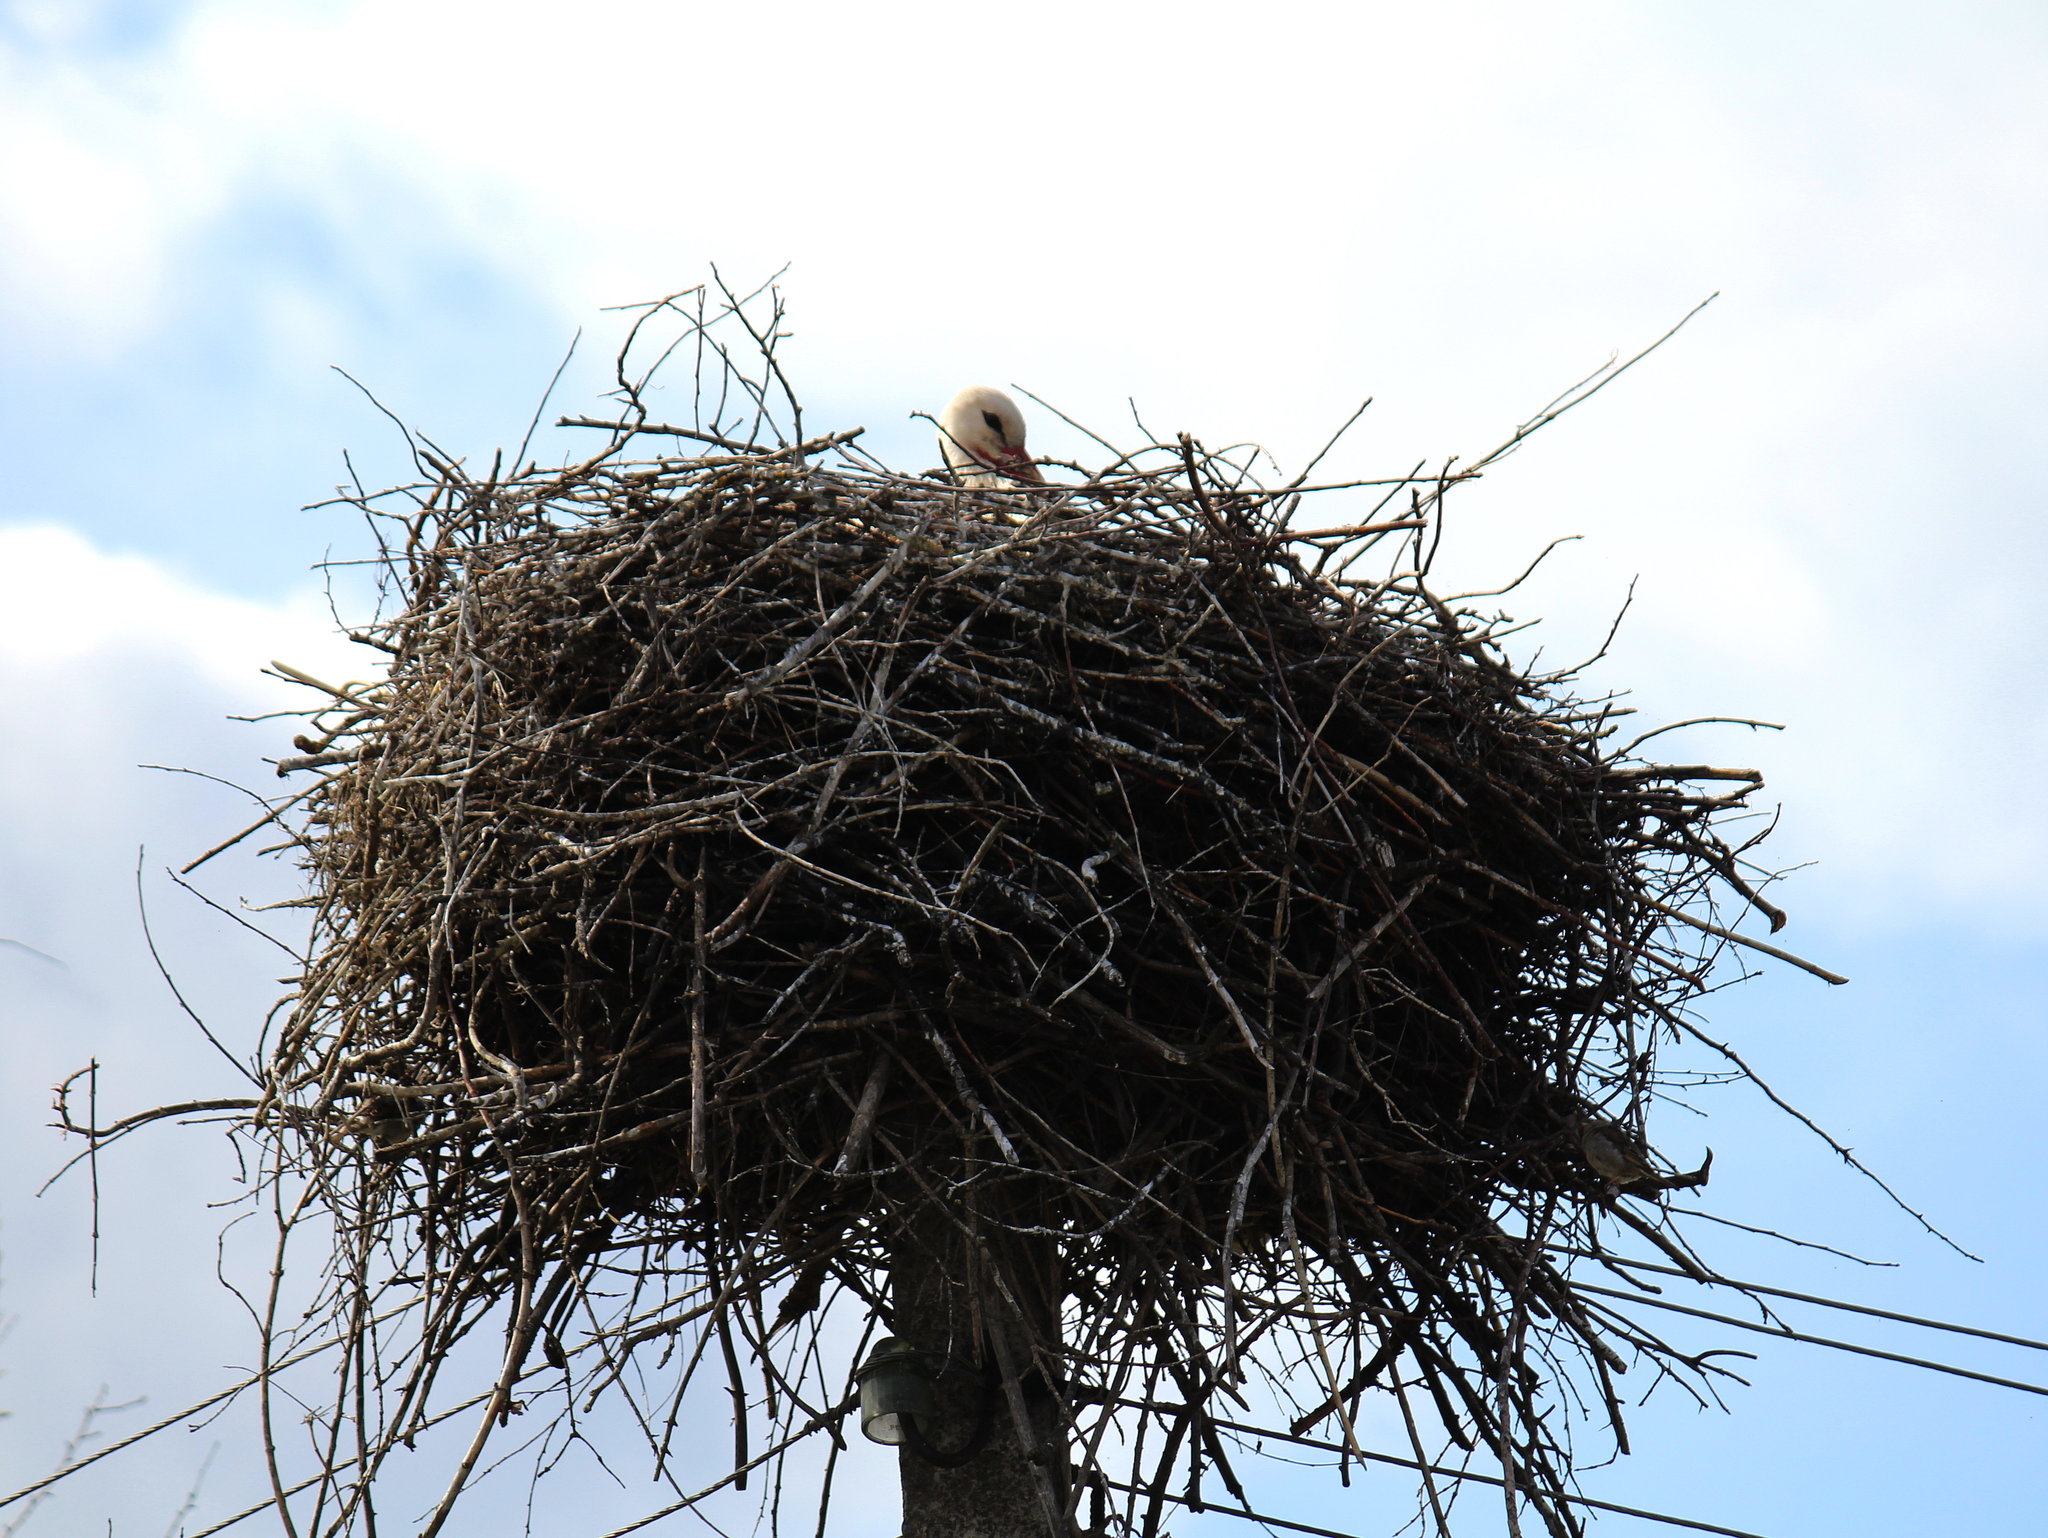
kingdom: Animalia
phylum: Chordata
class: Aves
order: Ciconiiformes
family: Ciconiidae
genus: Ciconia
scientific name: Ciconia ciconia
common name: White stork
